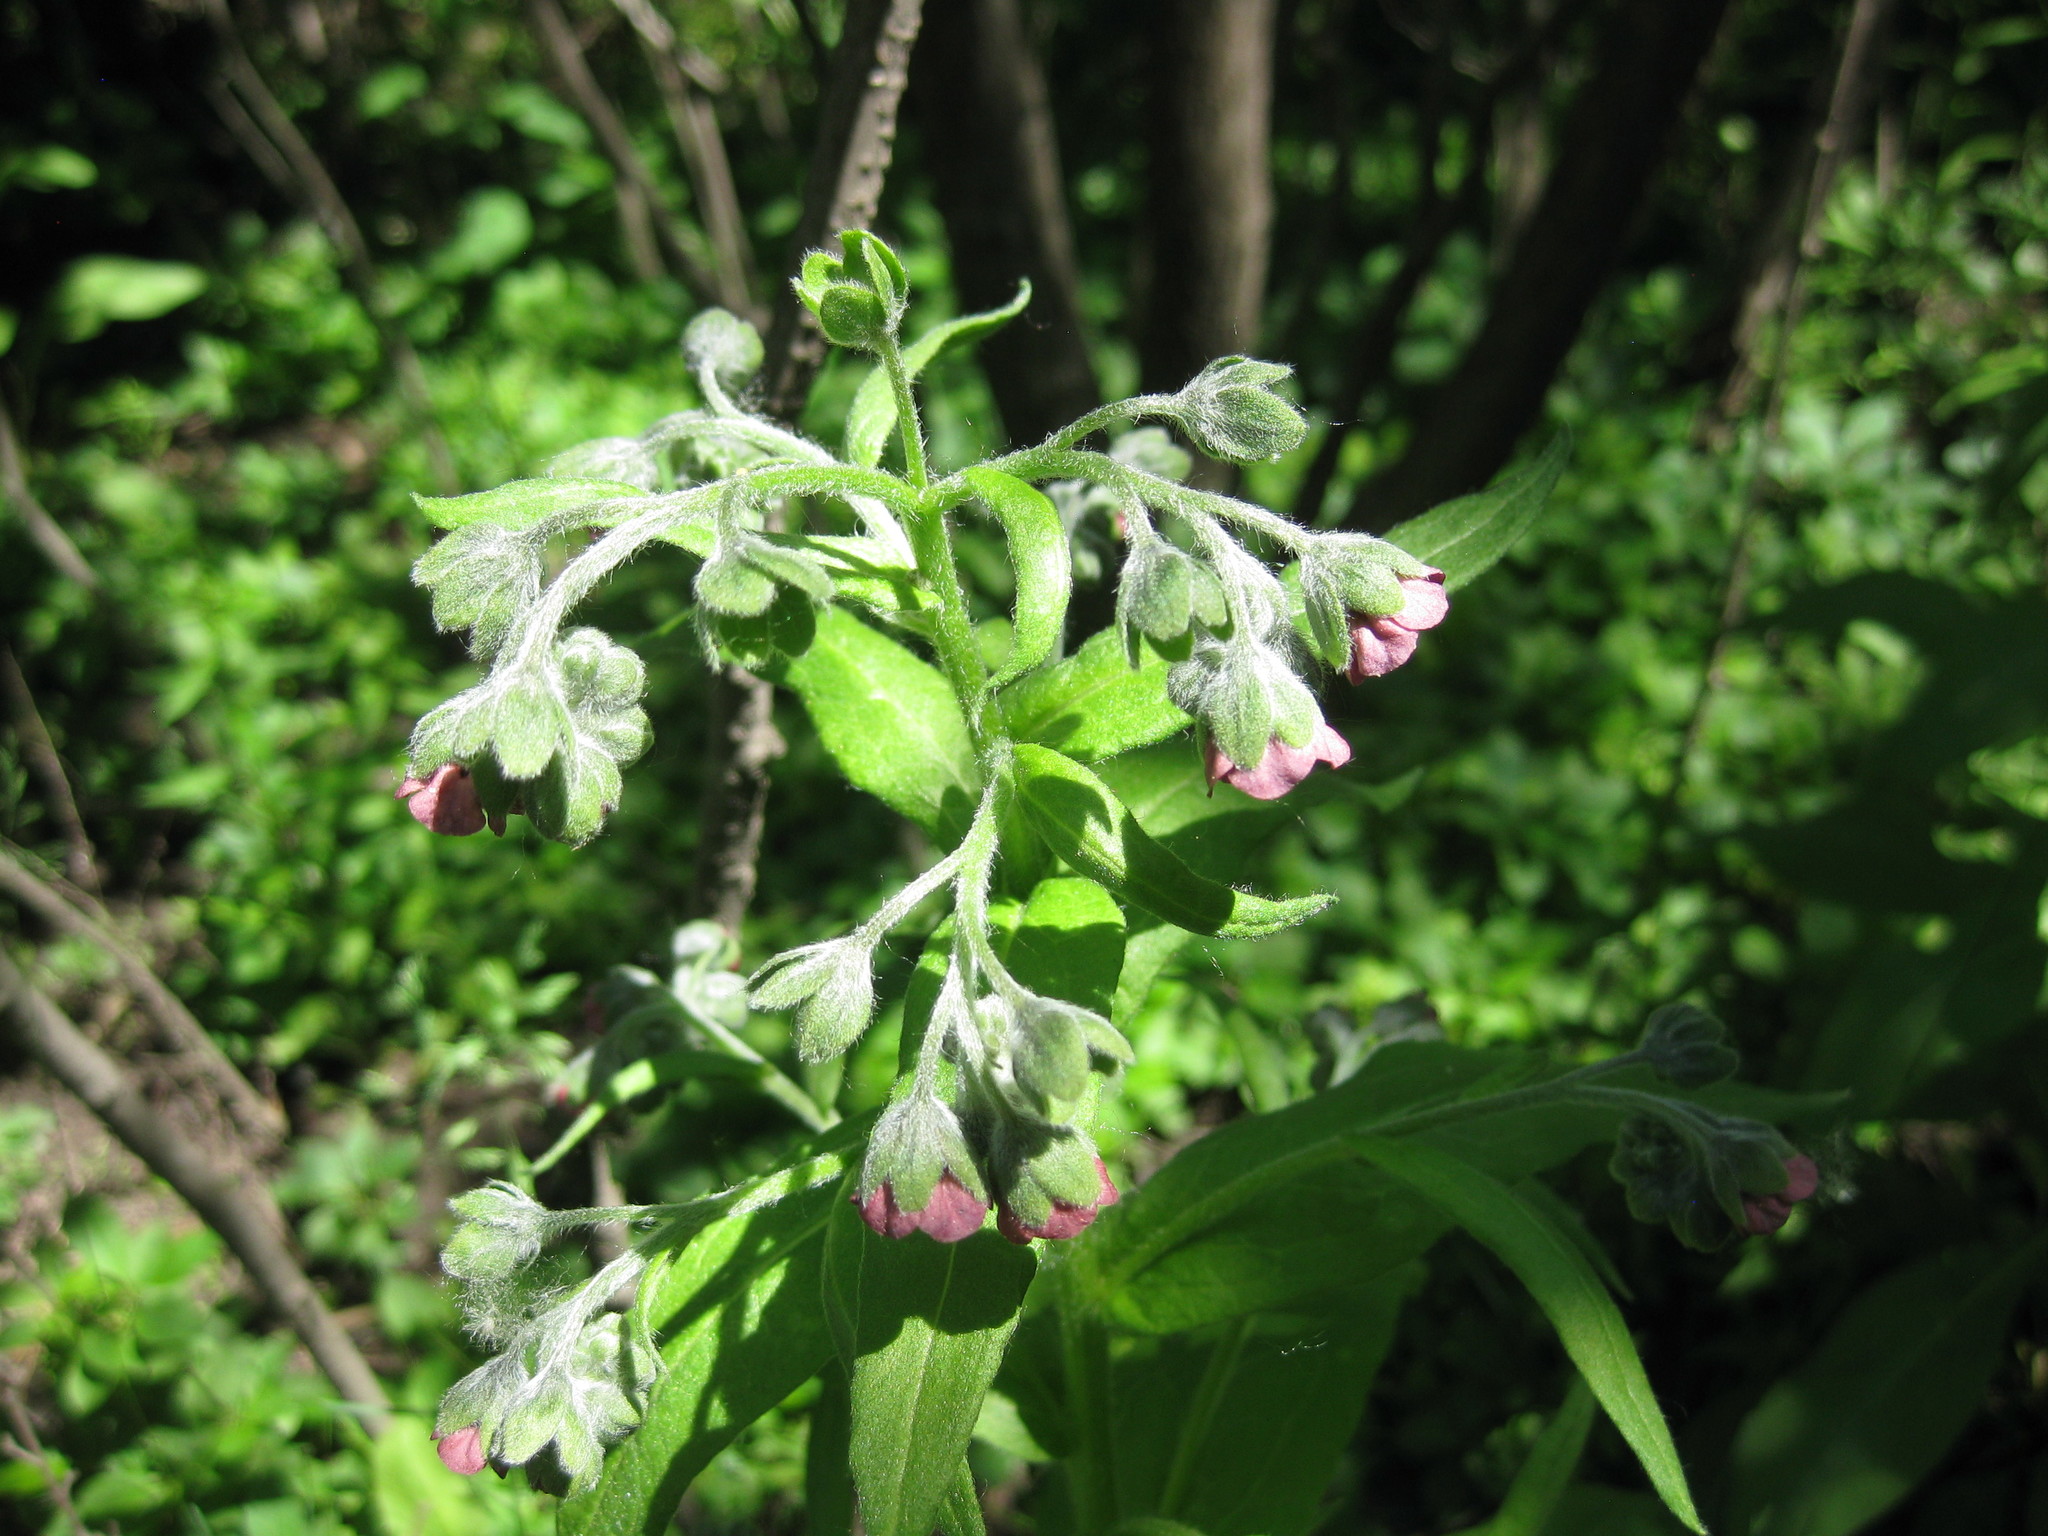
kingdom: Plantae
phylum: Tracheophyta
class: Magnoliopsida
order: Boraginales
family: Boraginaceae
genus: Cynoglossum
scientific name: Cynoglossum officinale
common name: Hound's-tongue
